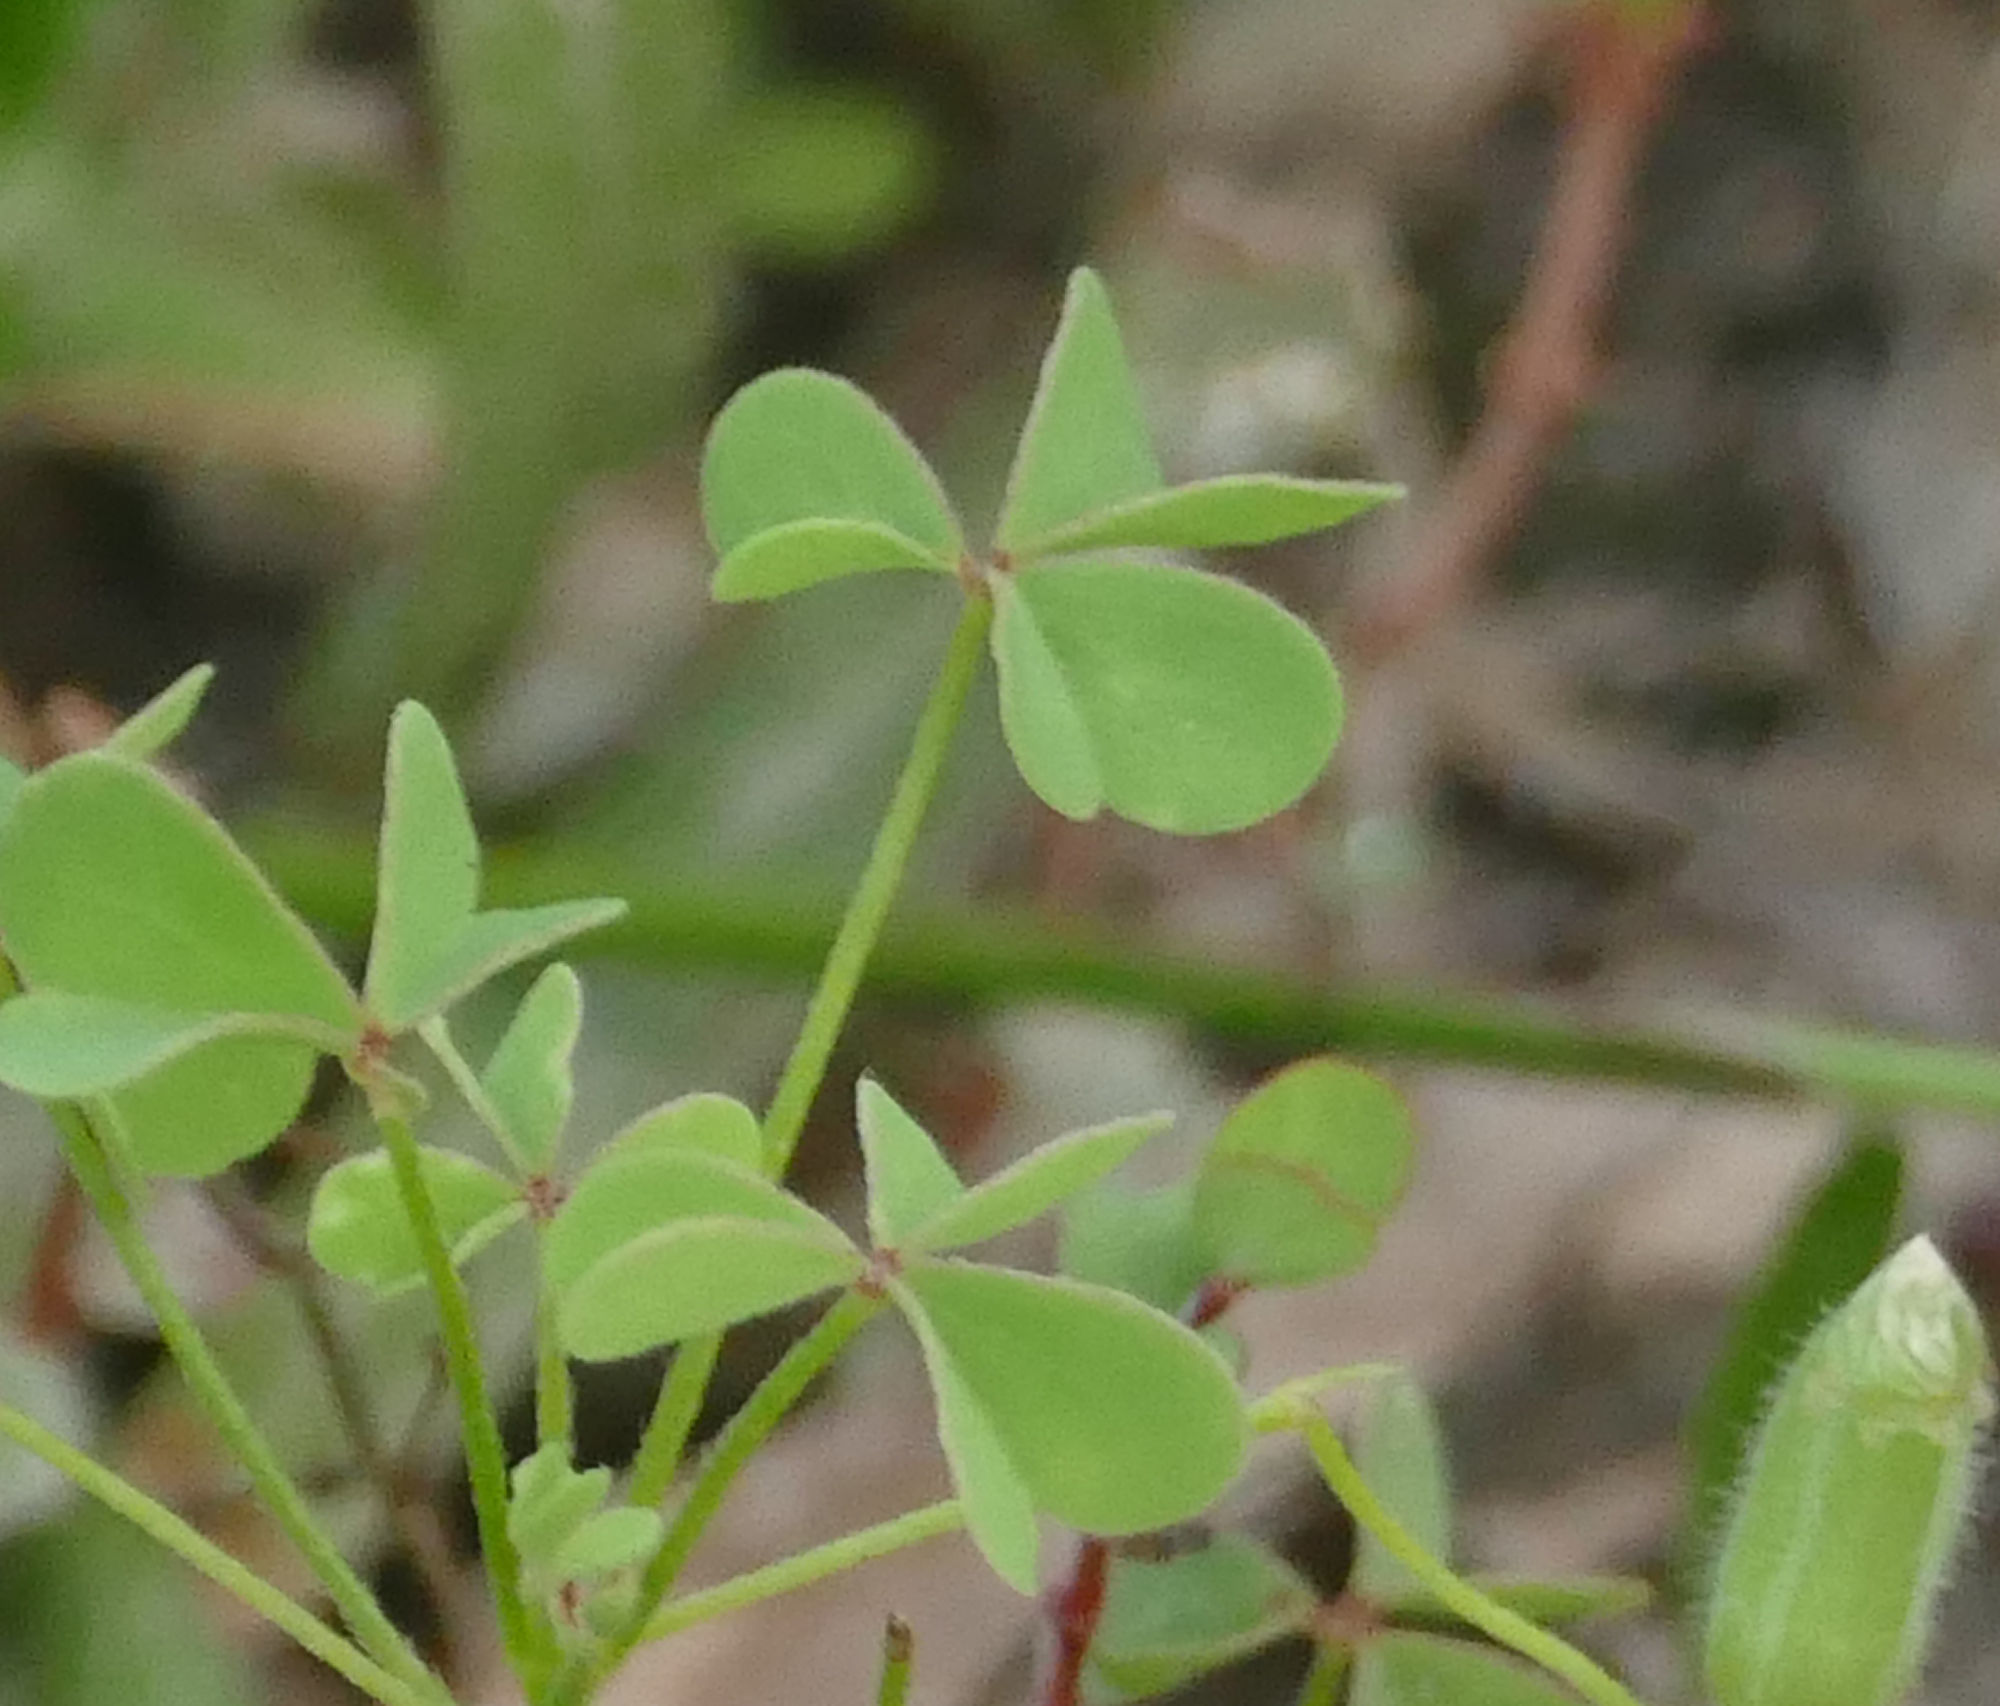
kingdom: Plantae
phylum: Tracheophyta
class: Magnoliopsida
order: Oxalidales
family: Oxalidaceae
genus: Oxalis
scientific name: Oxalis dillenii
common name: Sussex yellow-sorrel
